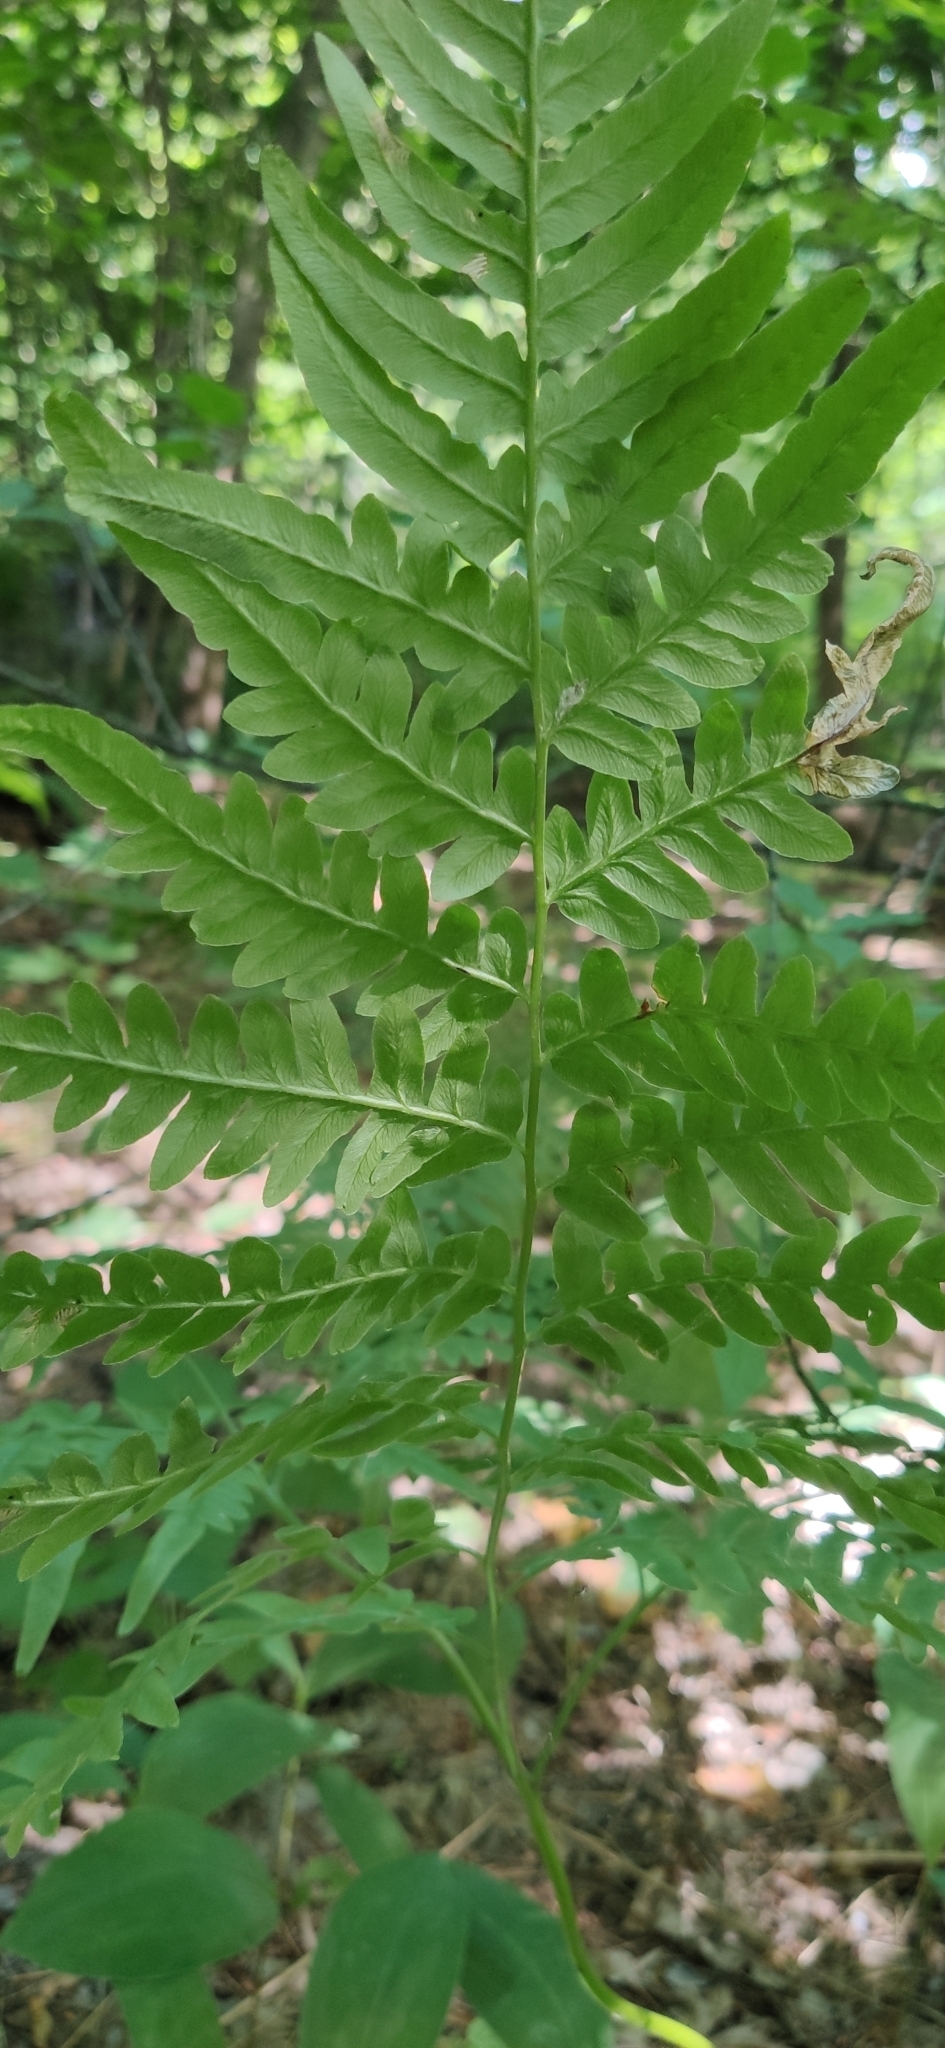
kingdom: Plantae
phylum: Tracheophyta
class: Polypodiopsida
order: Polypodiales
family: Dennstaedtiaceae
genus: Pteridium
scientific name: Pteridium aquilinum
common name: Bracken
